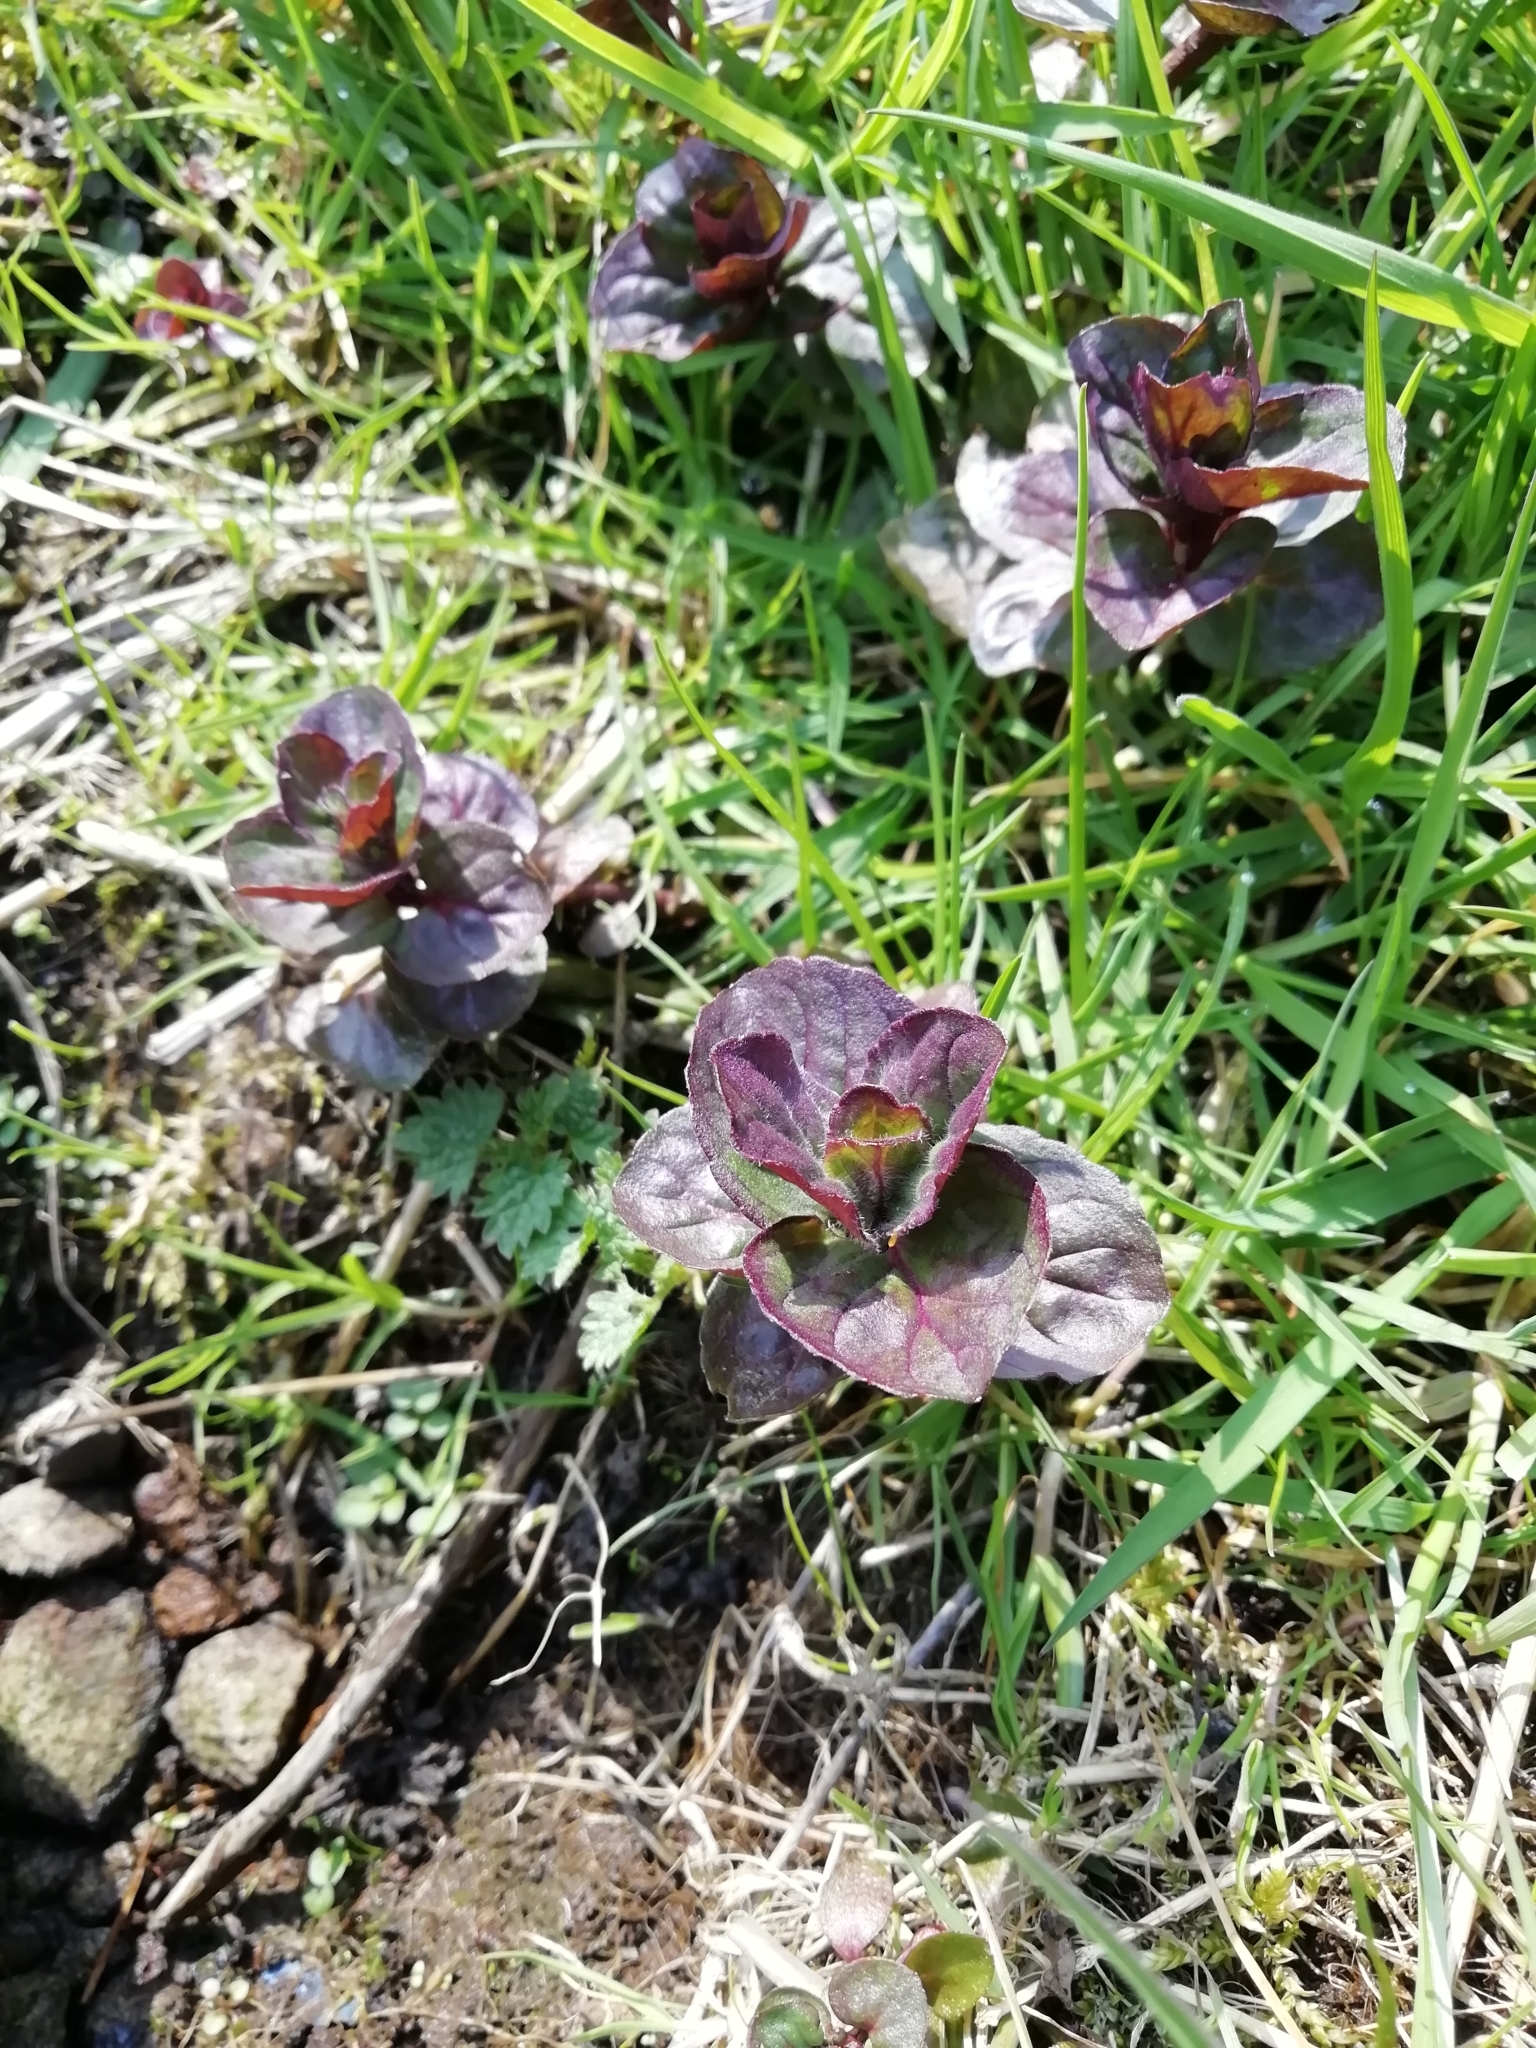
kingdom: Plantae
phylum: Tracheophyta
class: Magnoliopsida
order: Lamiales
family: Lamiaceae
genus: Mentha
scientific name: Mentha aquatica
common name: Water mint
